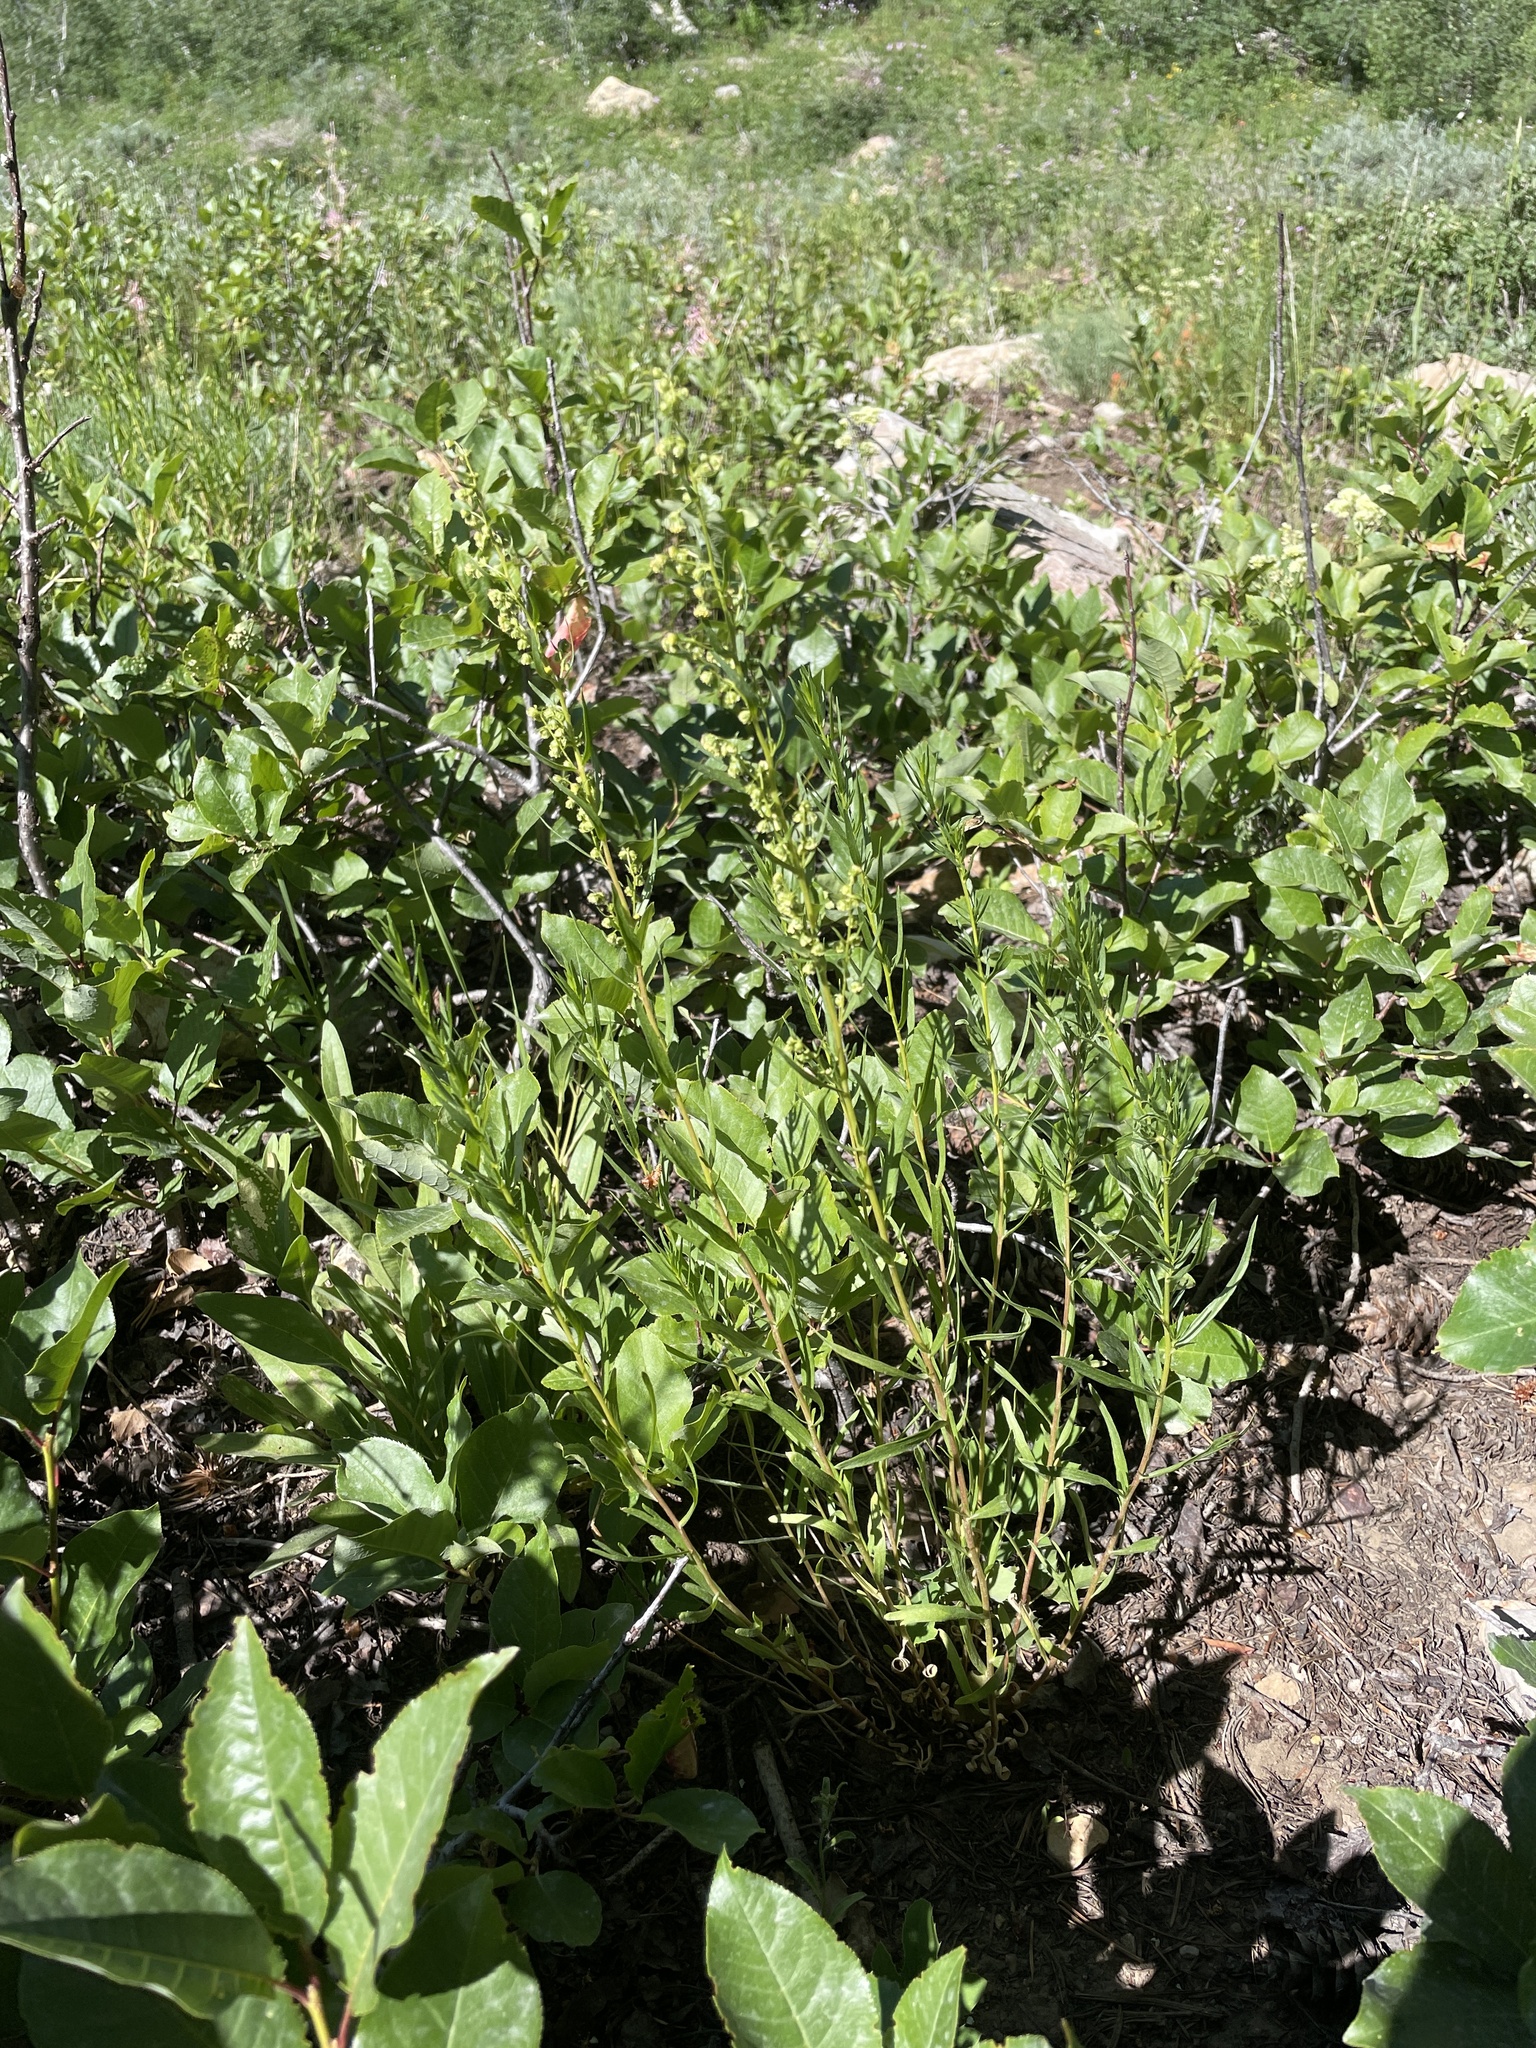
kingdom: Plantae
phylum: Tracheophyta
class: Magnoliopsida
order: Asterales
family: Asteraceae
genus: Artemisia
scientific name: Artemisia dracunculus
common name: Tarragon
